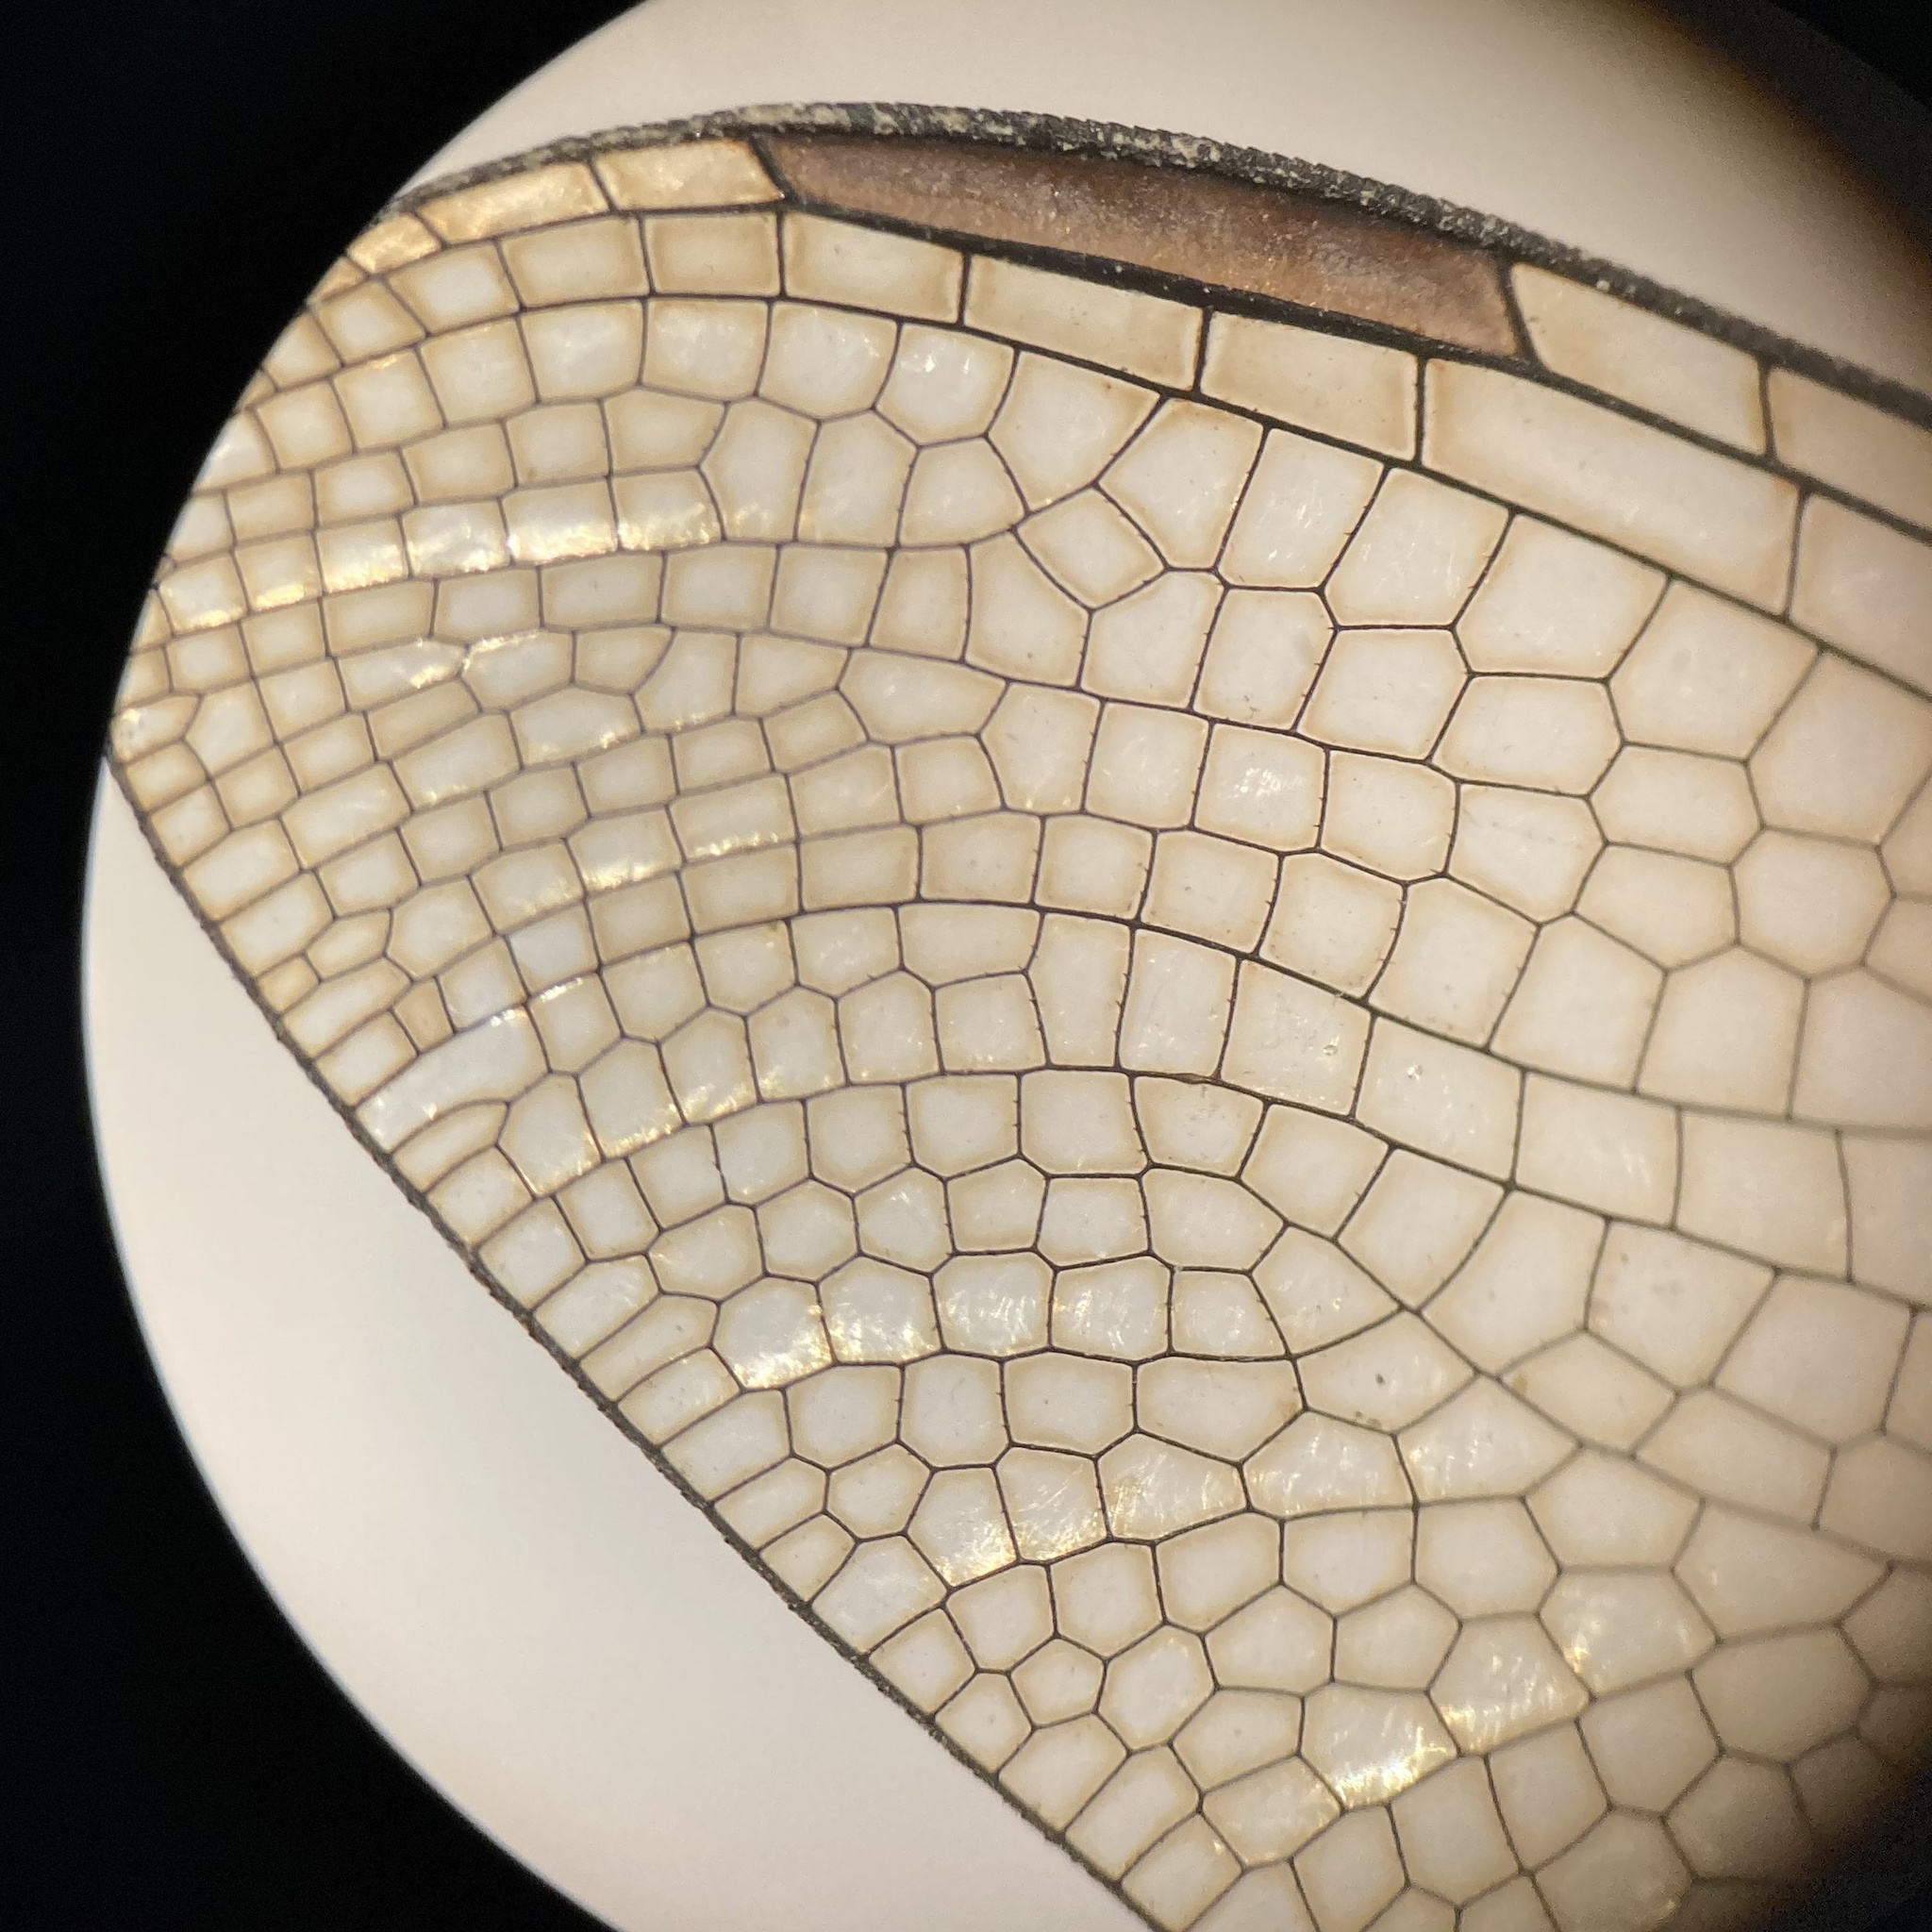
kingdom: Animalia
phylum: Arthropoda
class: Insecta
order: Odonata
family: Libellulidae
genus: Ladona
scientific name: Ladona julia
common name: Chalk-fronted corporal
